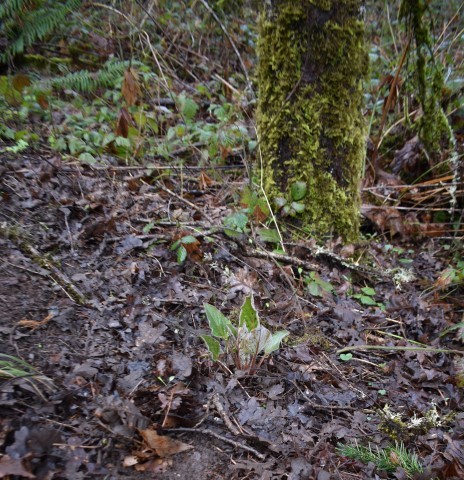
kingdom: Plantae
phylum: Tracheophyta
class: Magnoliopsida
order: Boraginales
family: Boraginaceae
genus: Adelinia
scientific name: Adelinia grande
